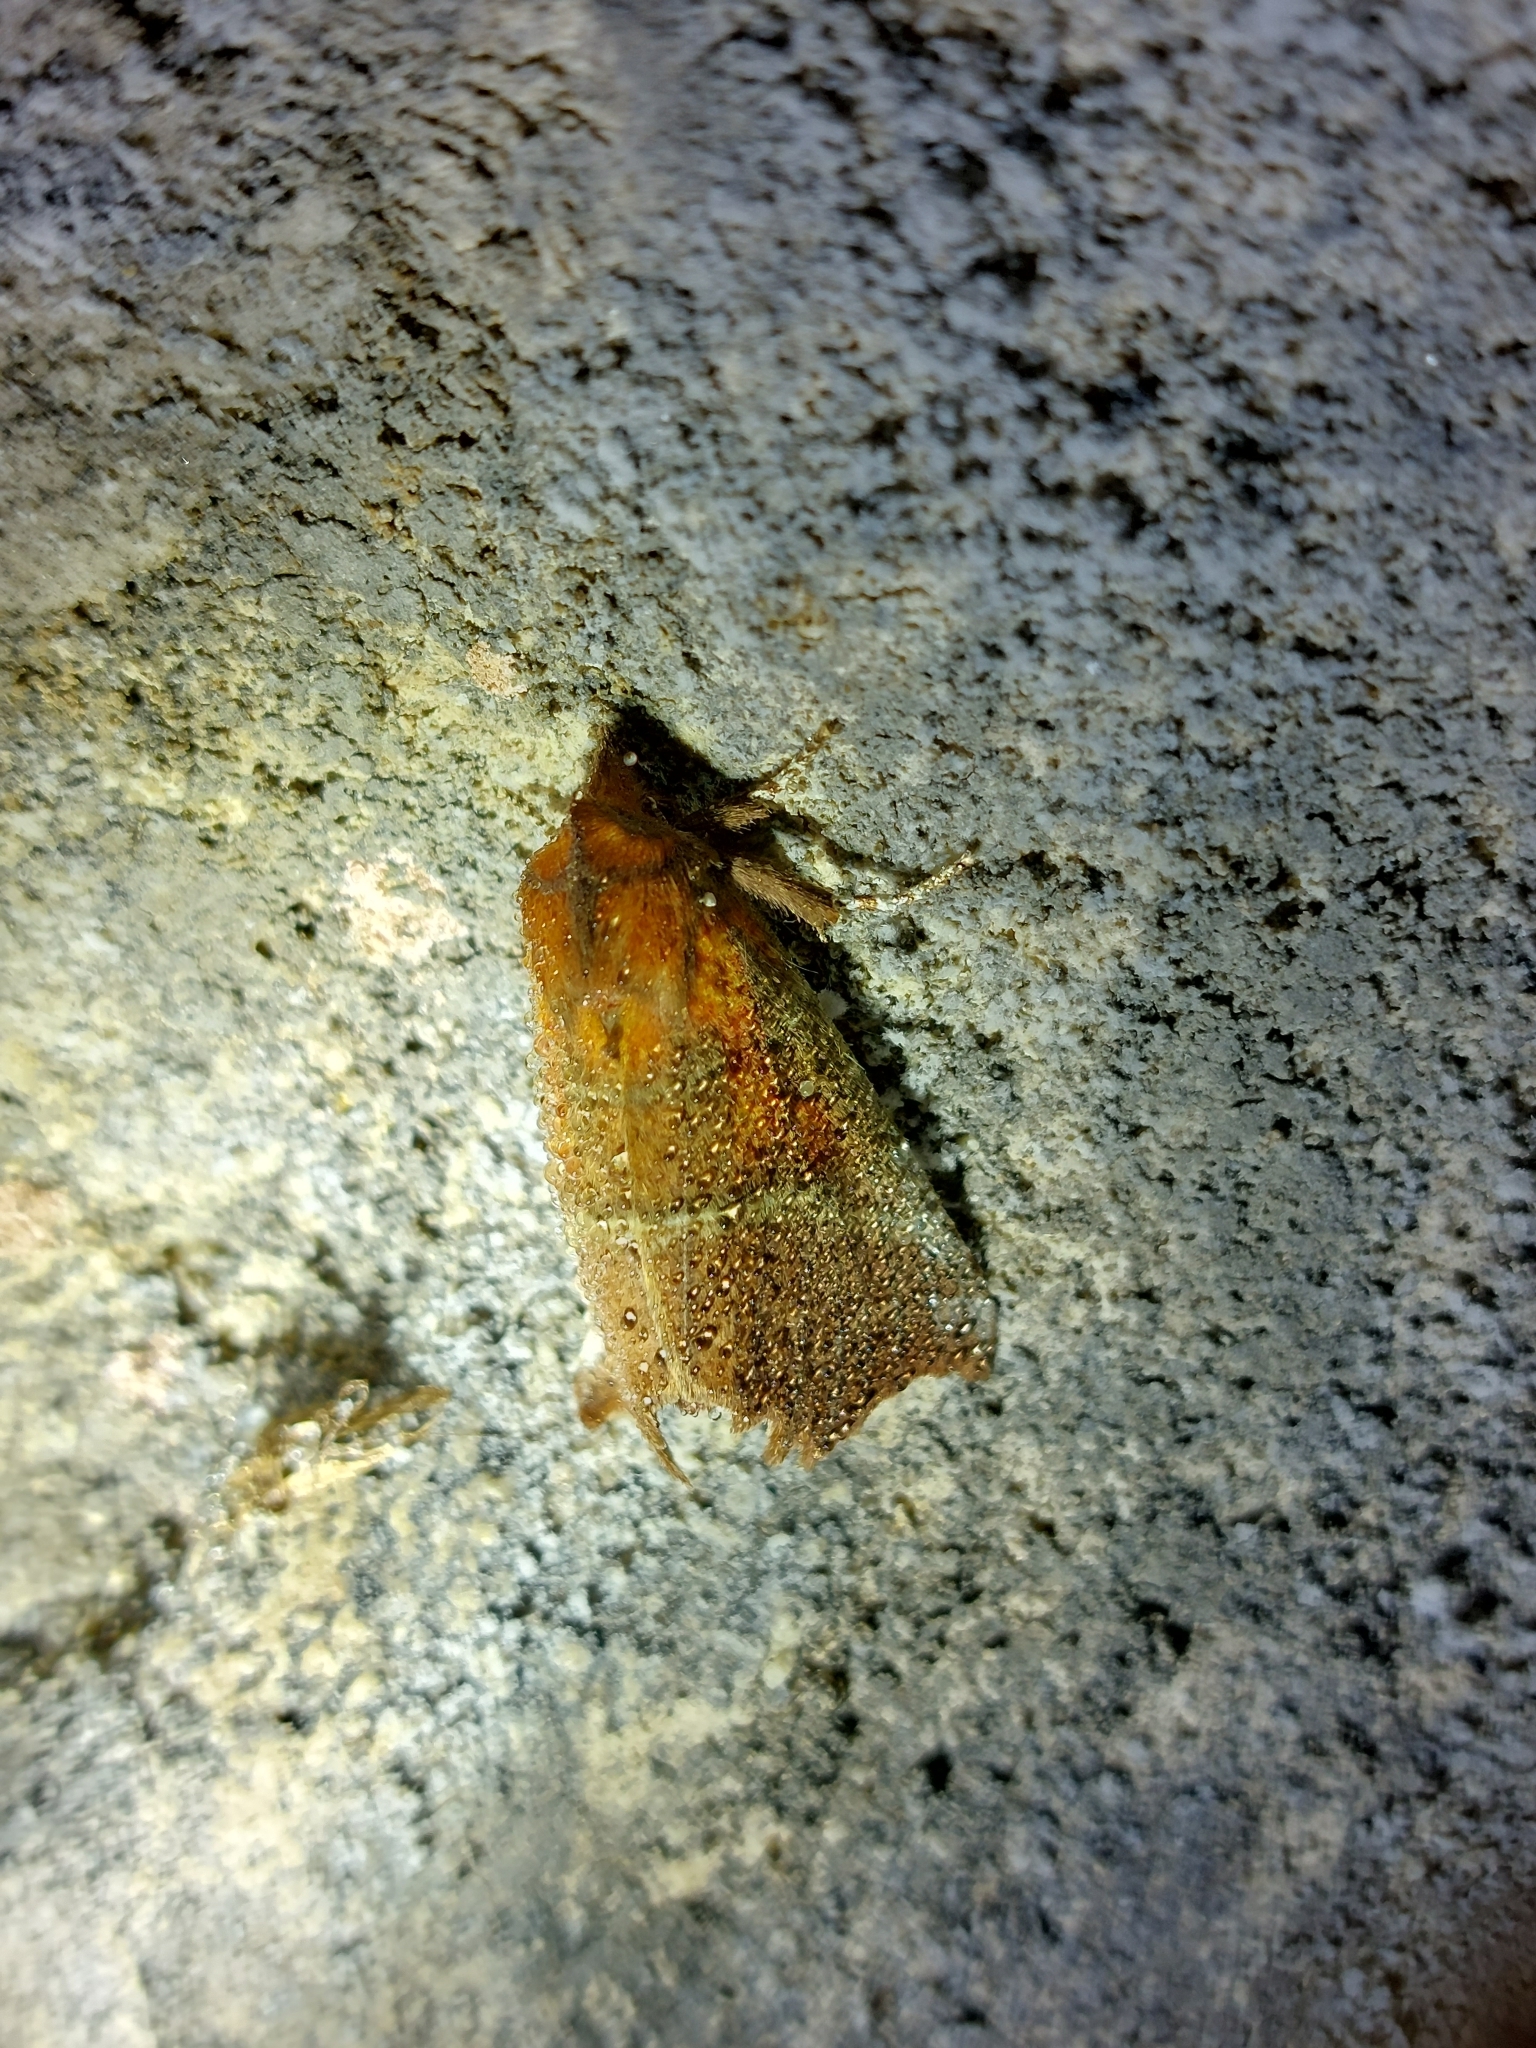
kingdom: Animalia
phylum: Arthropoda
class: Insecta
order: Lepidoptera
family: Erebidae
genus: Scoliopteryx
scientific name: Scoliopteryx libatrix
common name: Herald
